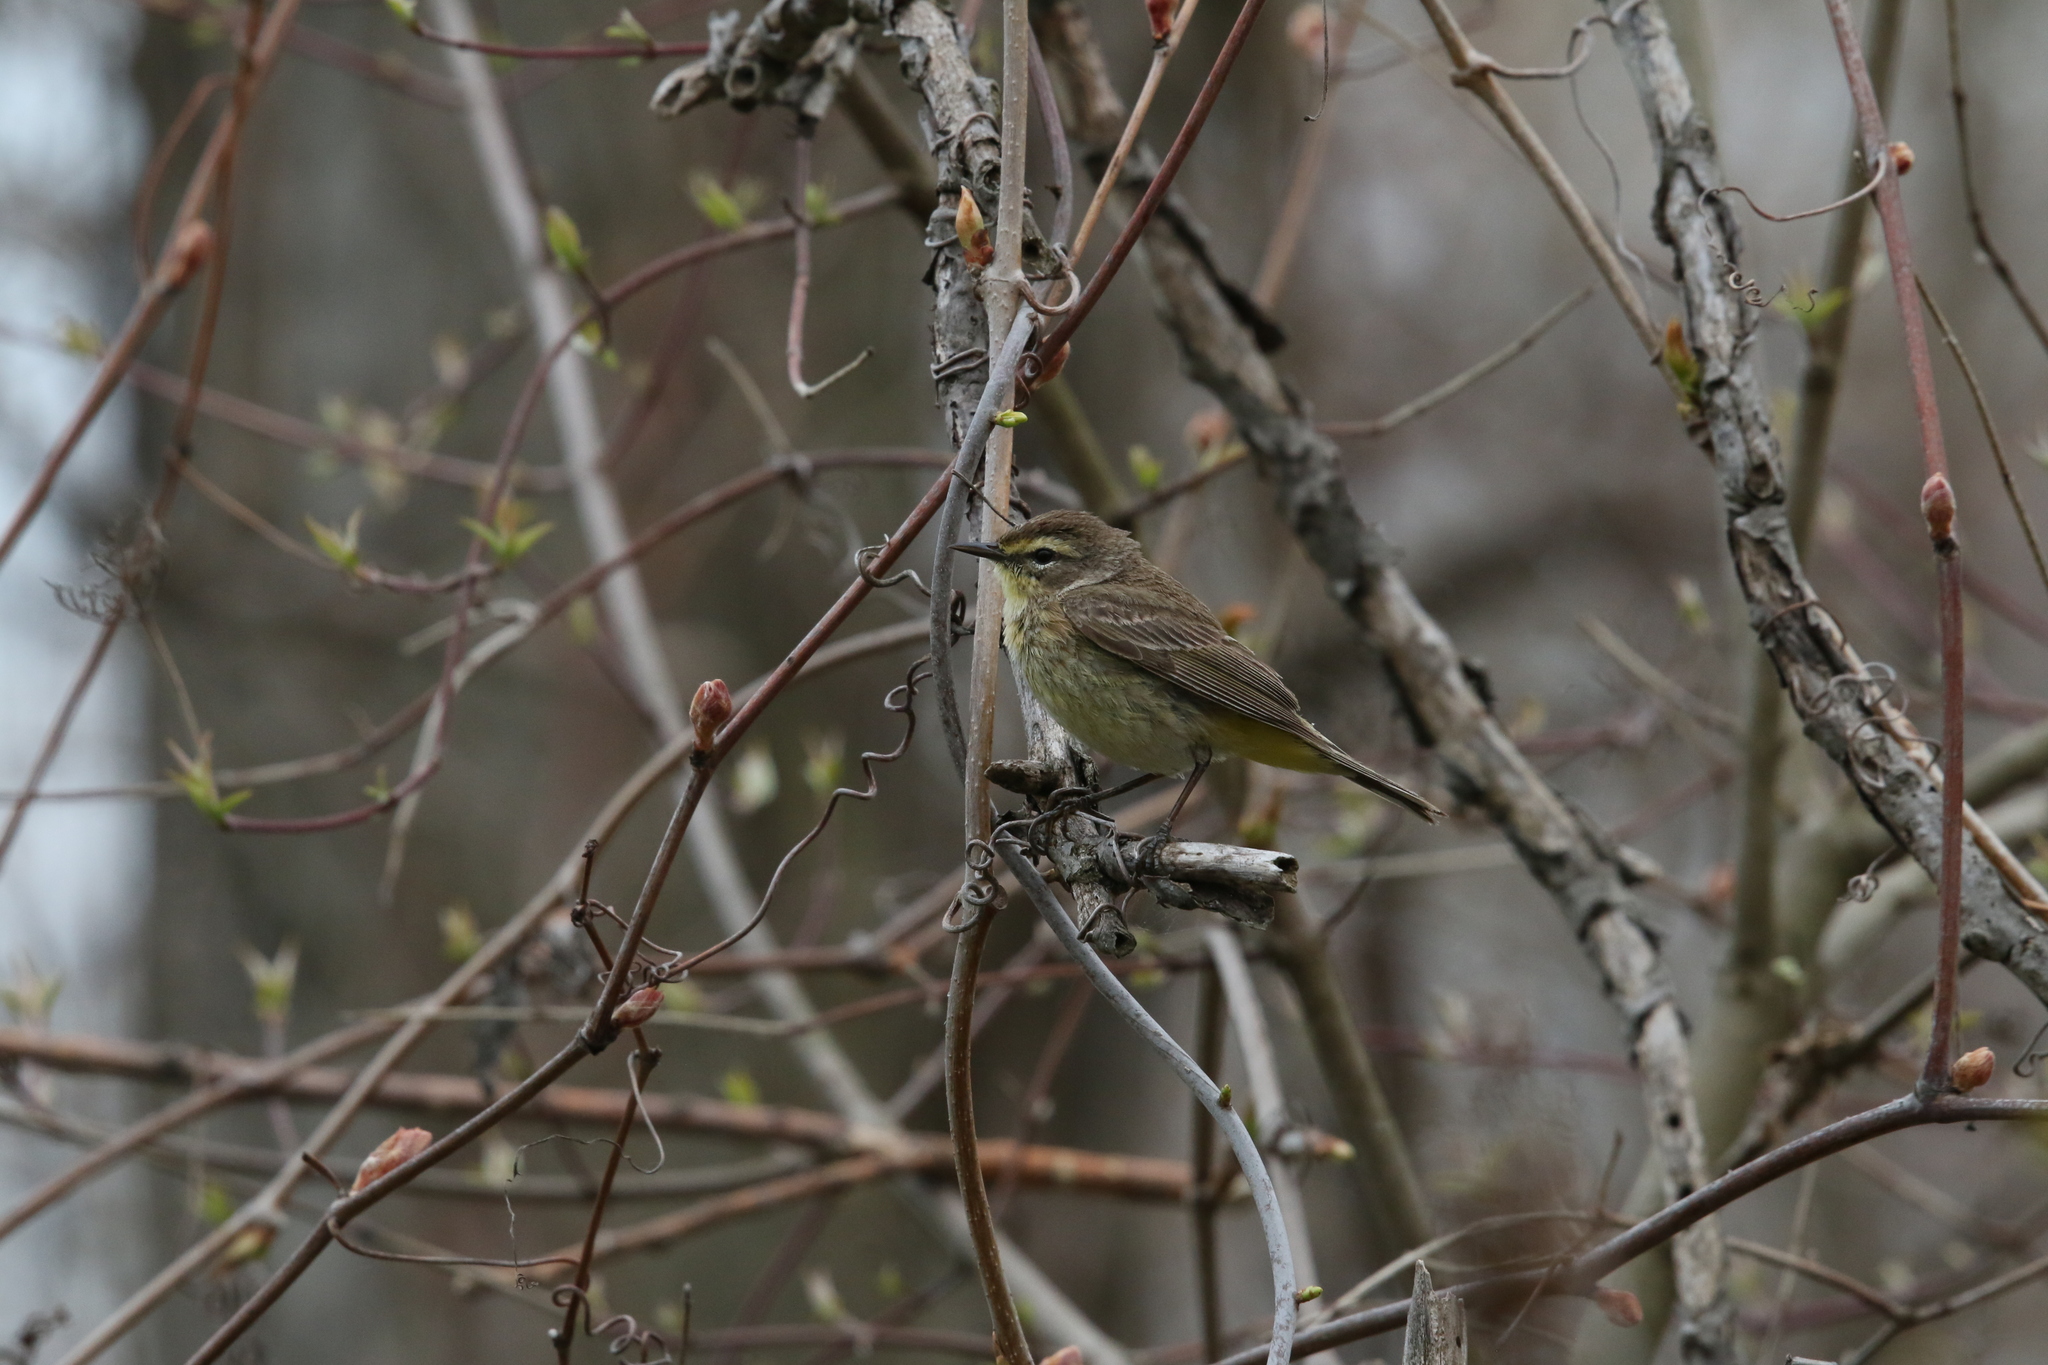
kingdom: Animalia
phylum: Chordata
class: Aves
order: Passeriformes
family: Parulidae
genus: Setophaga
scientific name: Setophaga palmarum
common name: Palm warbler
